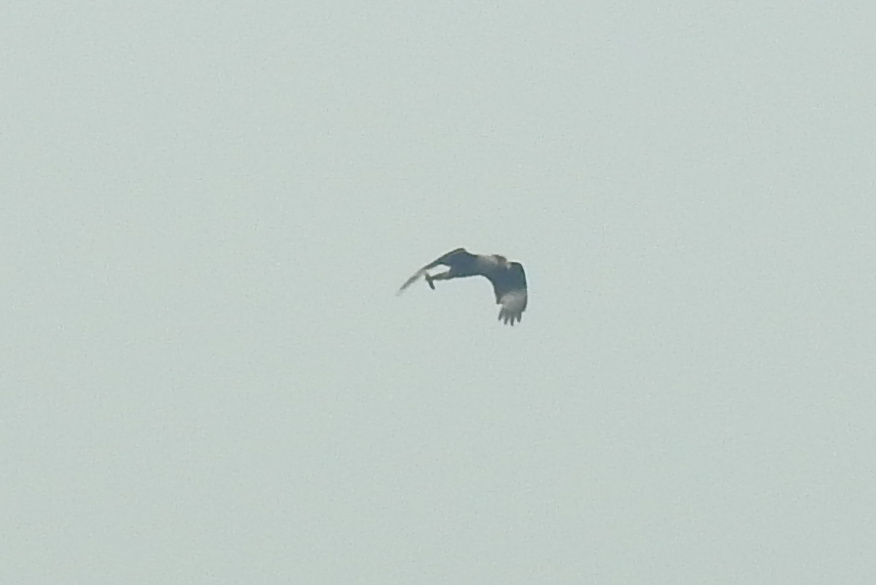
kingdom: Animalia
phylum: Chordata
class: Aves
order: Falconiformes
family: Falconidae
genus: Caracara
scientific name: Caracara plancus
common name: Southern caracara
